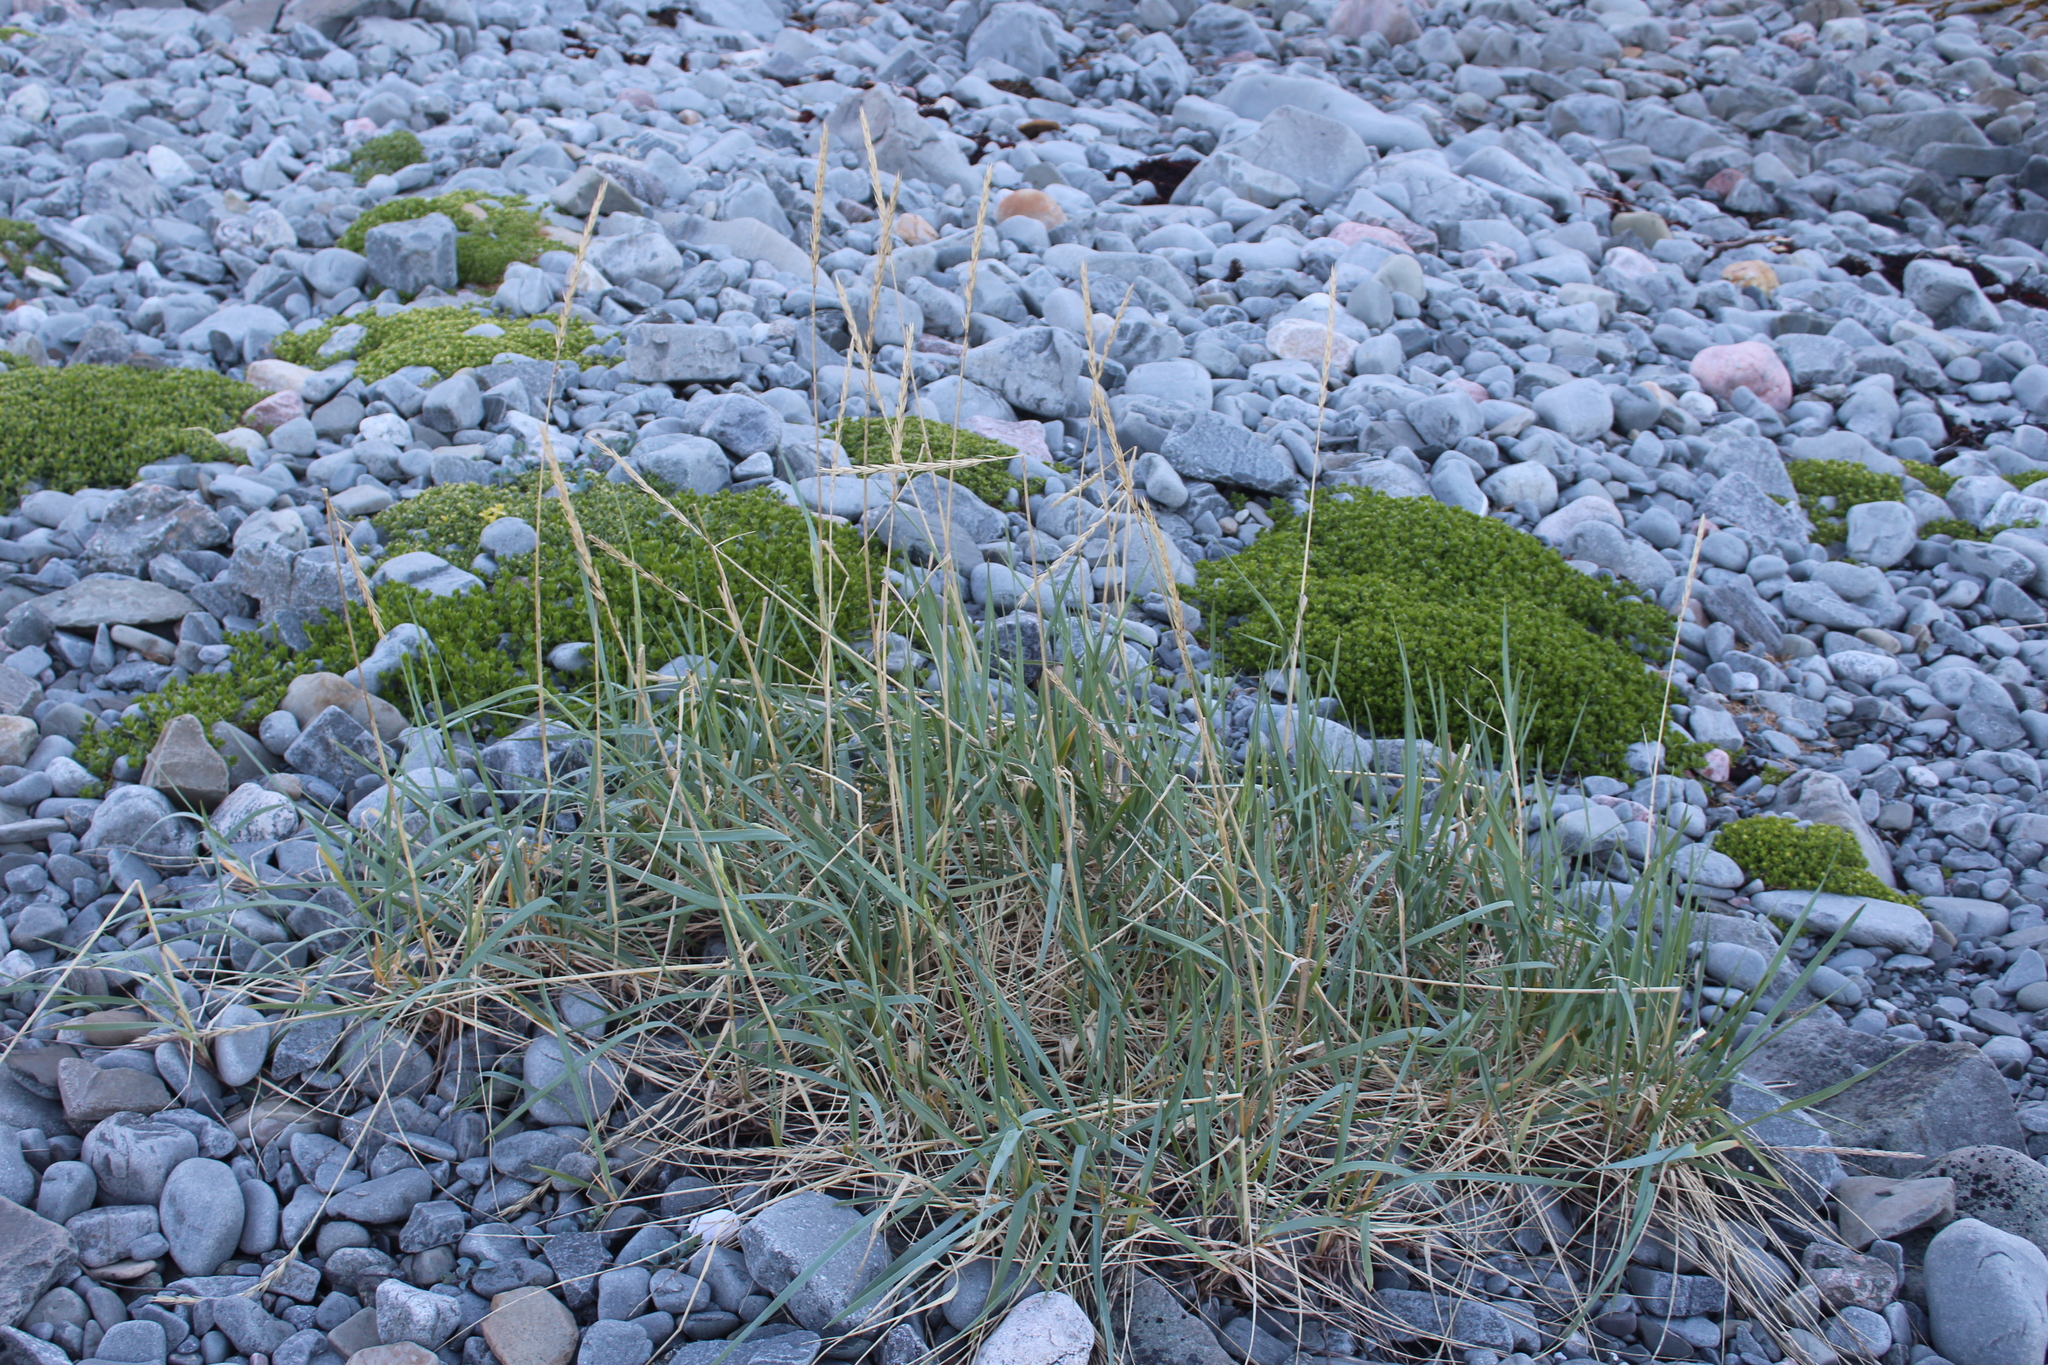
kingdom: Plantae
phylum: Tracheophyta
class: Liliopsida
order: Poales
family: Poaceae
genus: Leymus
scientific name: Leymus arenarius
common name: Lyme-grass
